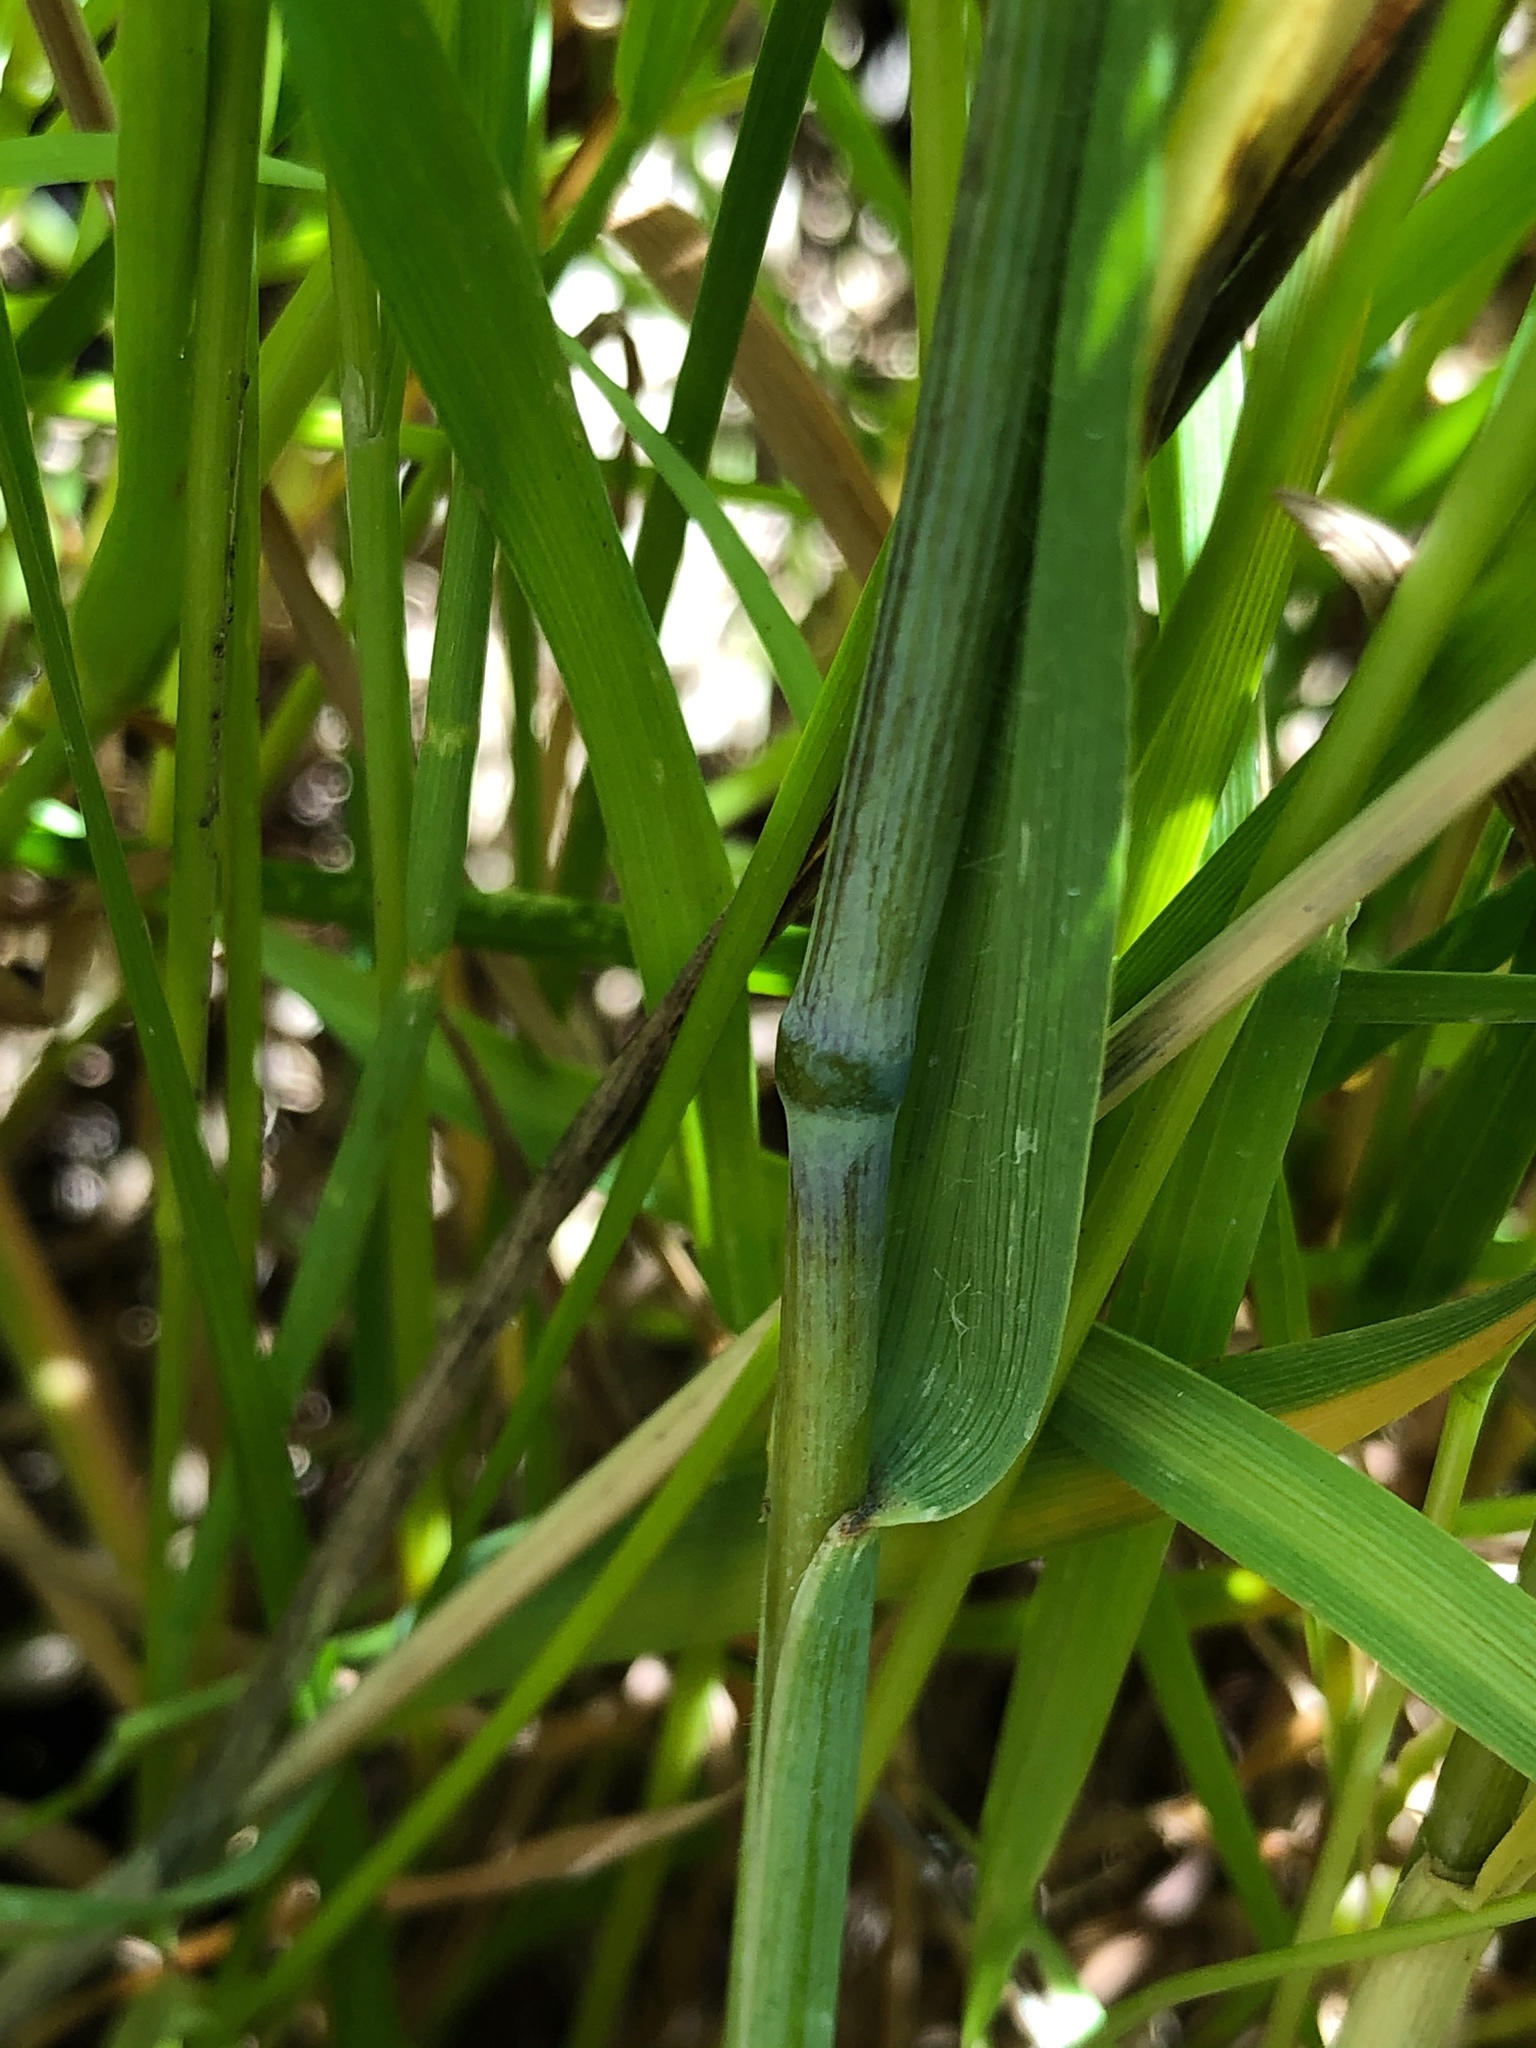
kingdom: Plantae
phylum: Tracheophyta
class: Liliopsida
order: Poales
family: Poaceae
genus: Elymus
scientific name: Elymus repens
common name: Quackgrass
